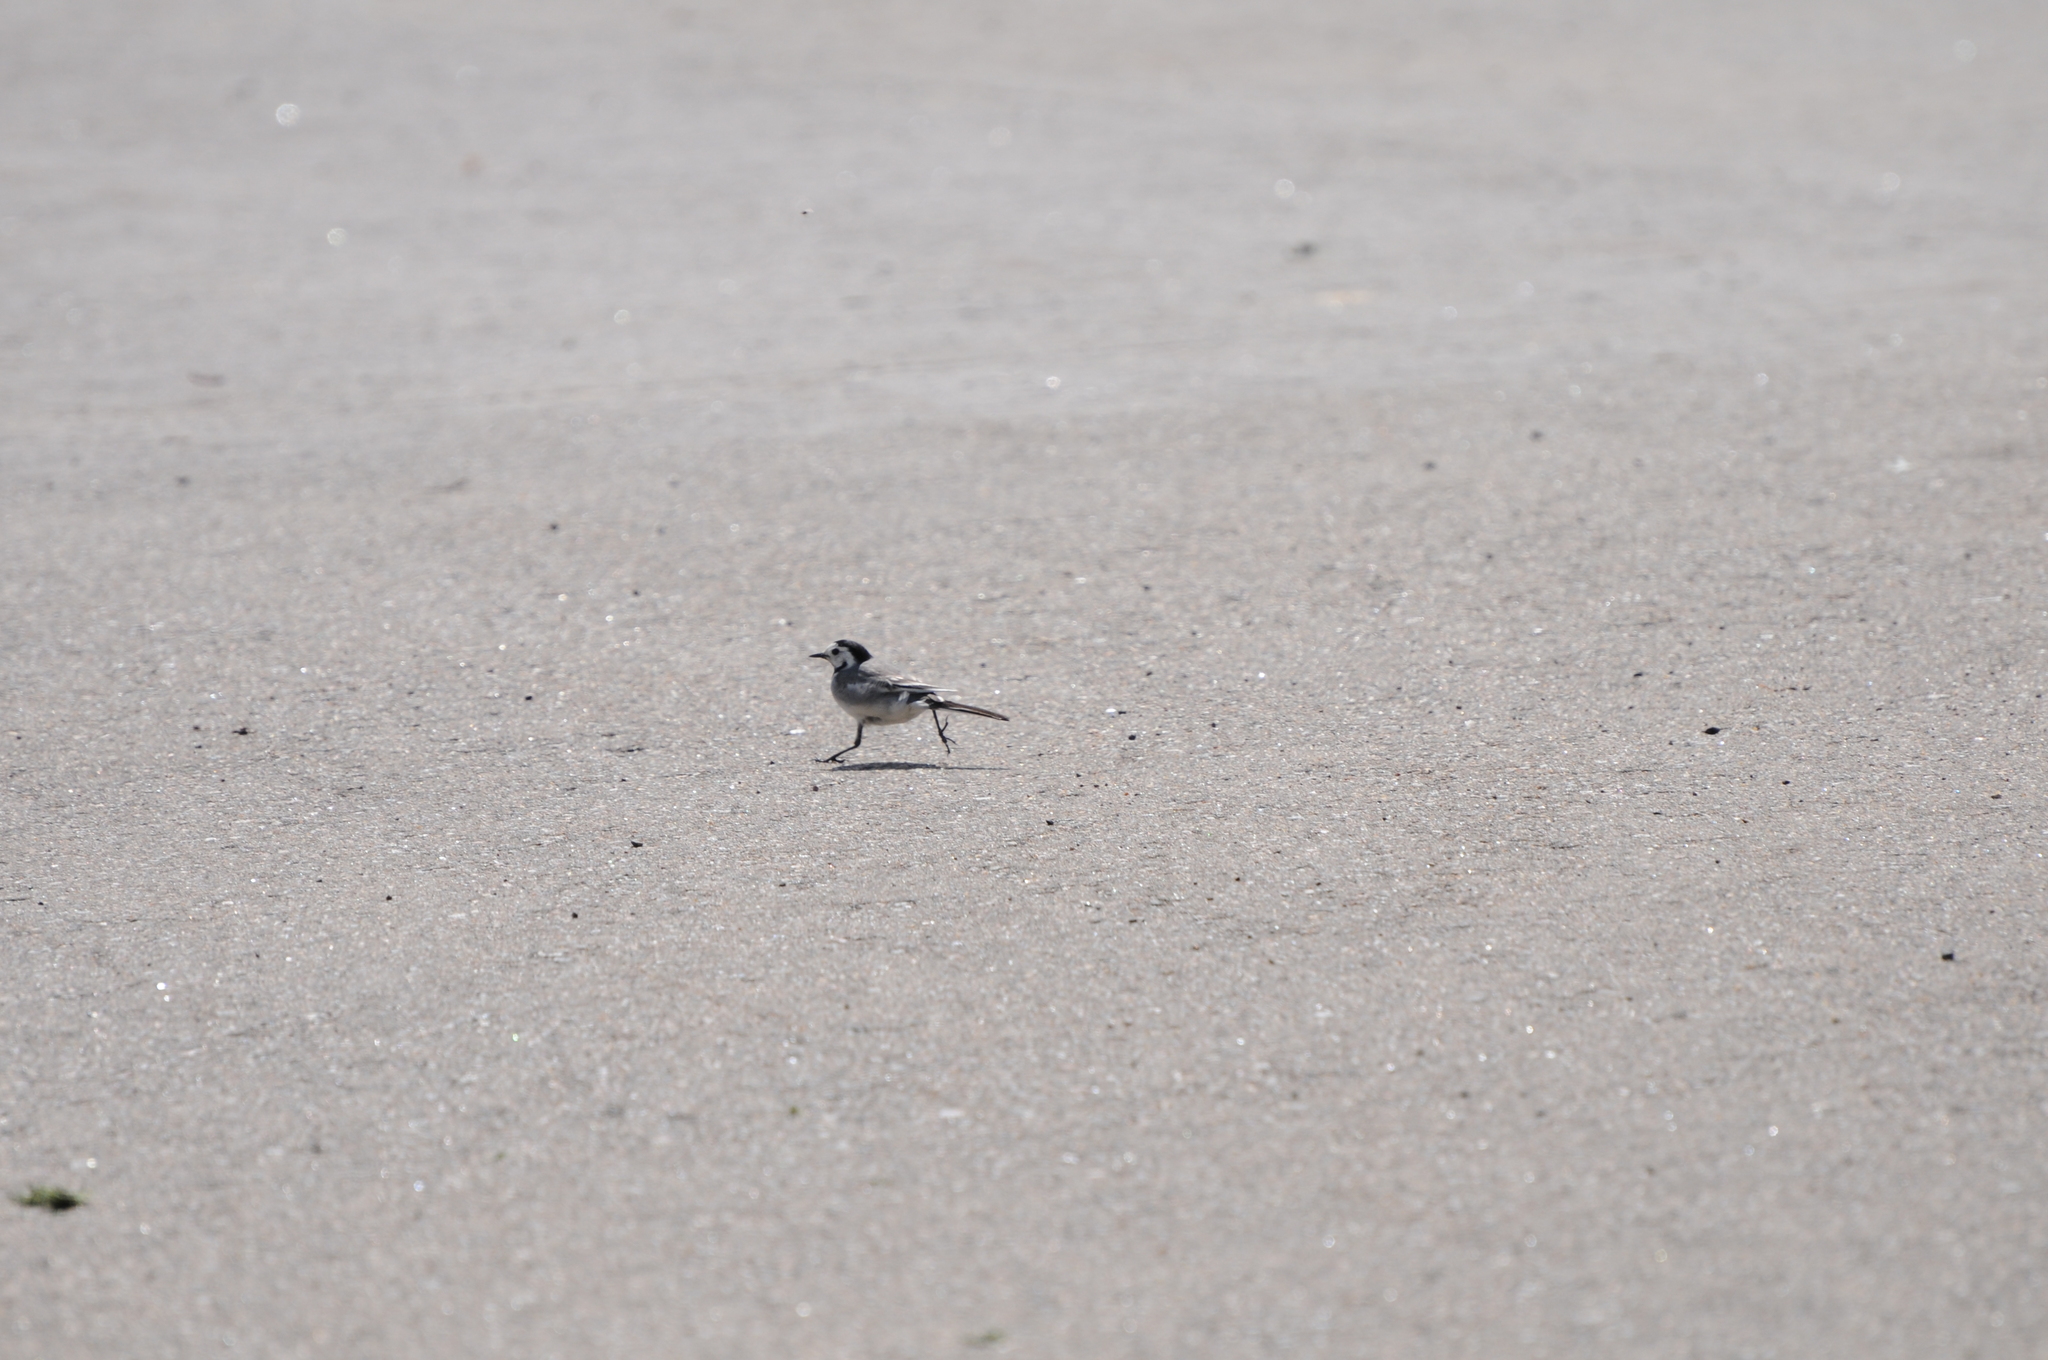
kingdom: Animalia
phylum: Chordata
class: Aves
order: Passeriformes
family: Motacillidae
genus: Motacilla
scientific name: Motacilla alba
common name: White wagtail
